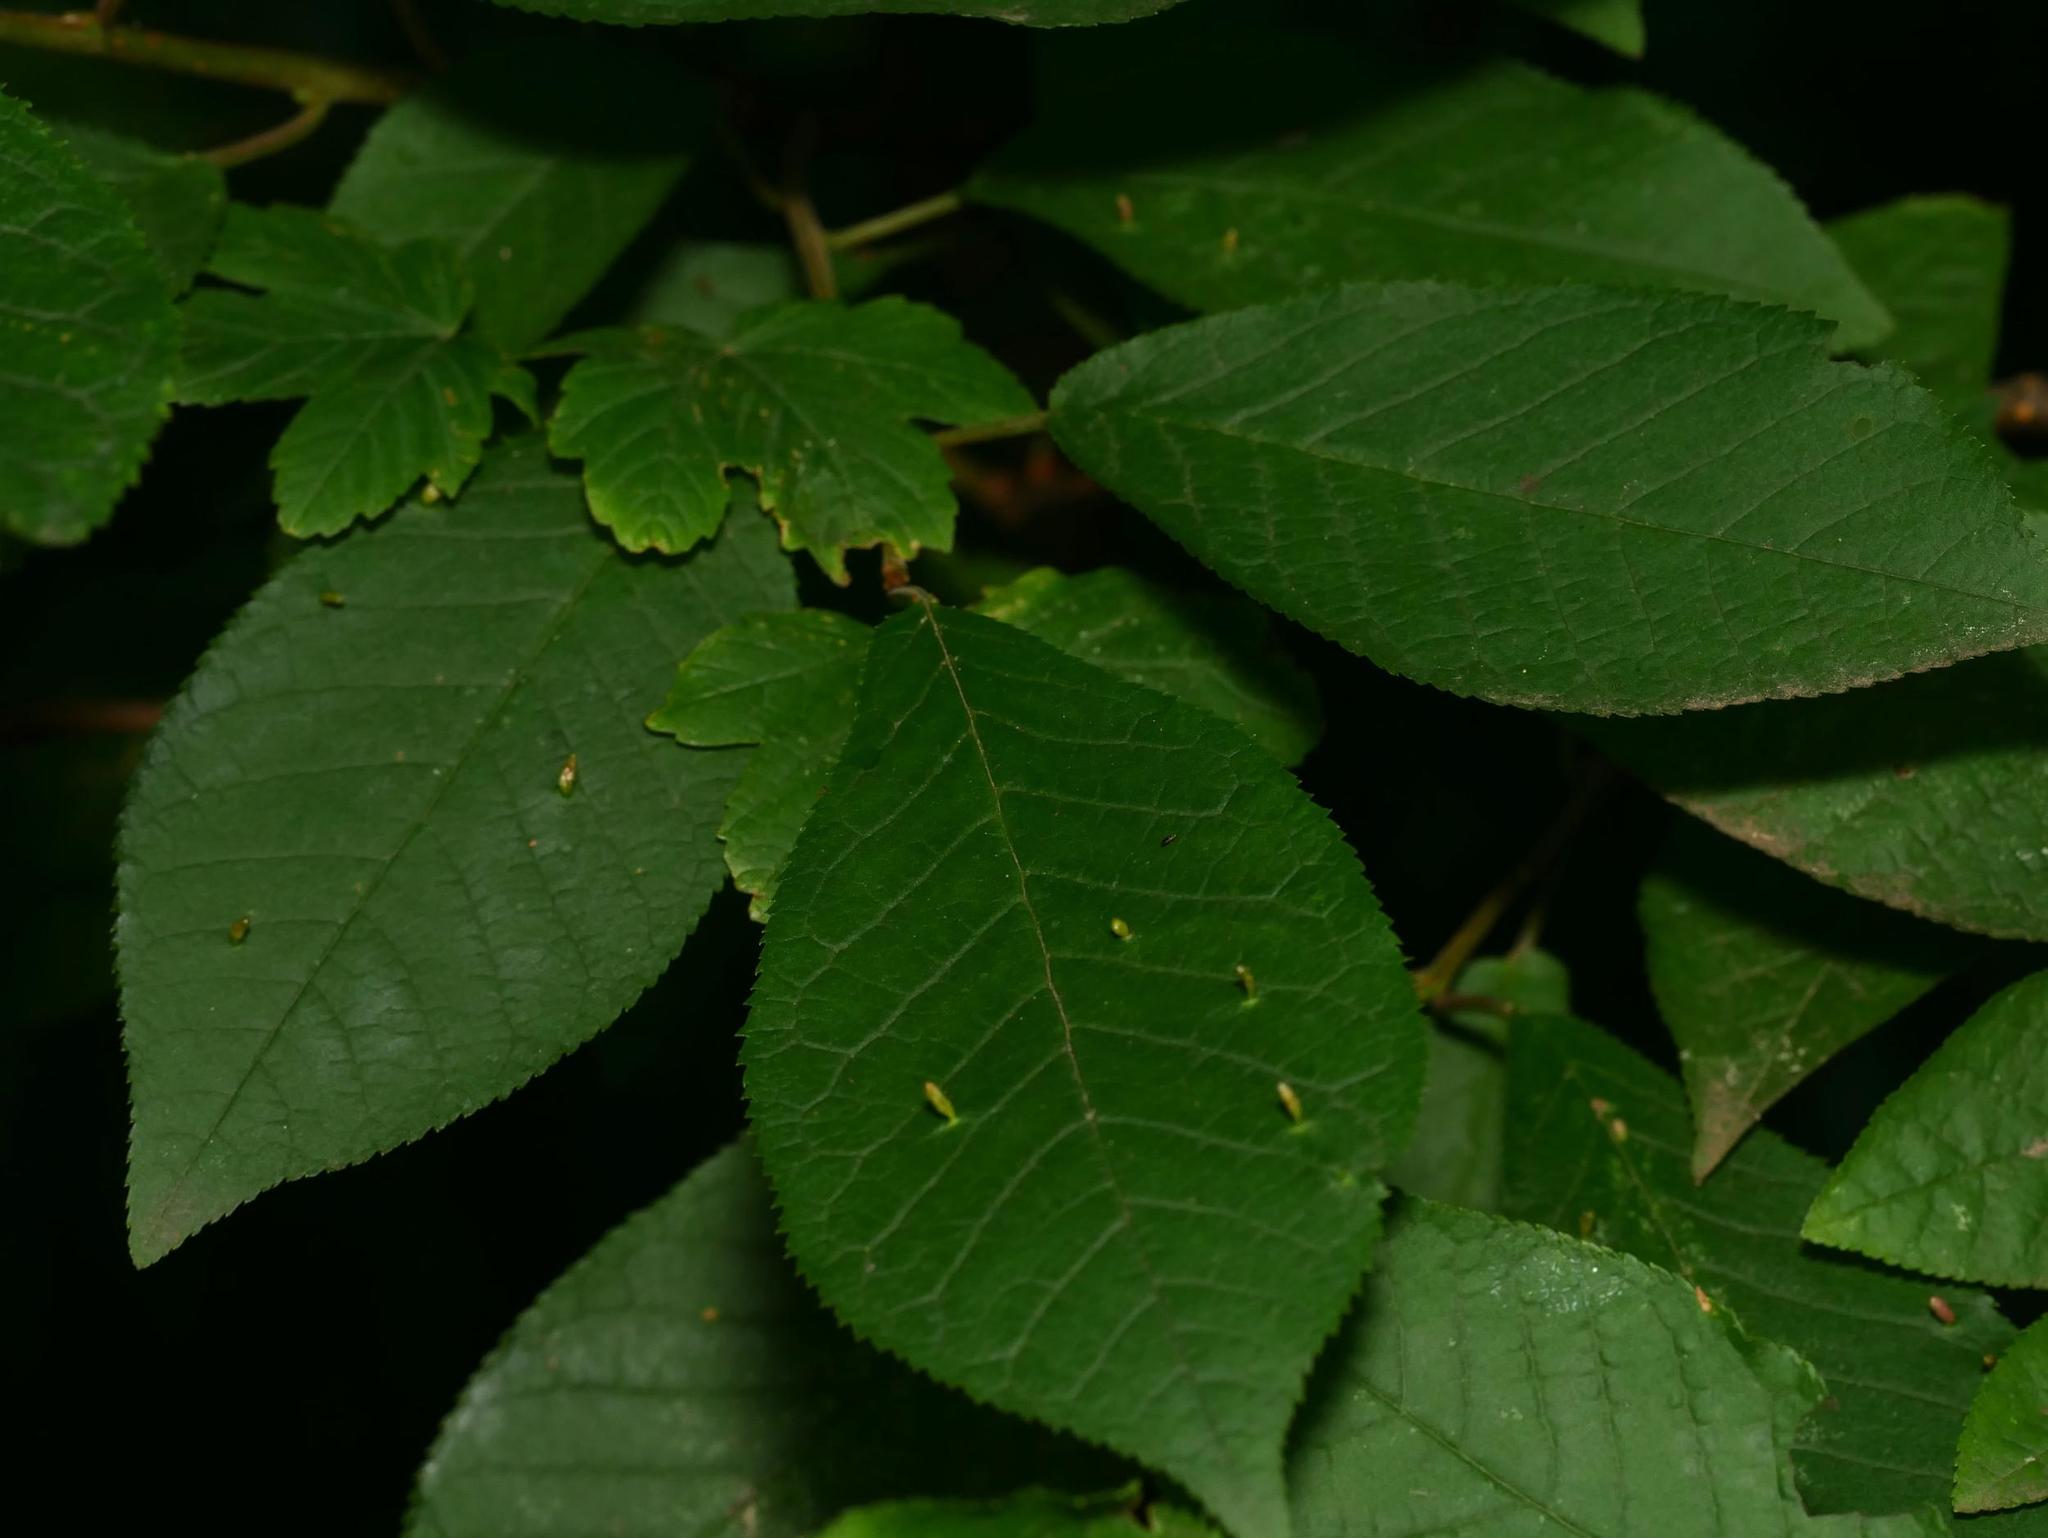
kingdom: Plantae
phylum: Tracheophyta
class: Magnoliopsida
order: Rosales
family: Rosaceae
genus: Prunus
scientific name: Prunus padus
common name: Bird cherry
